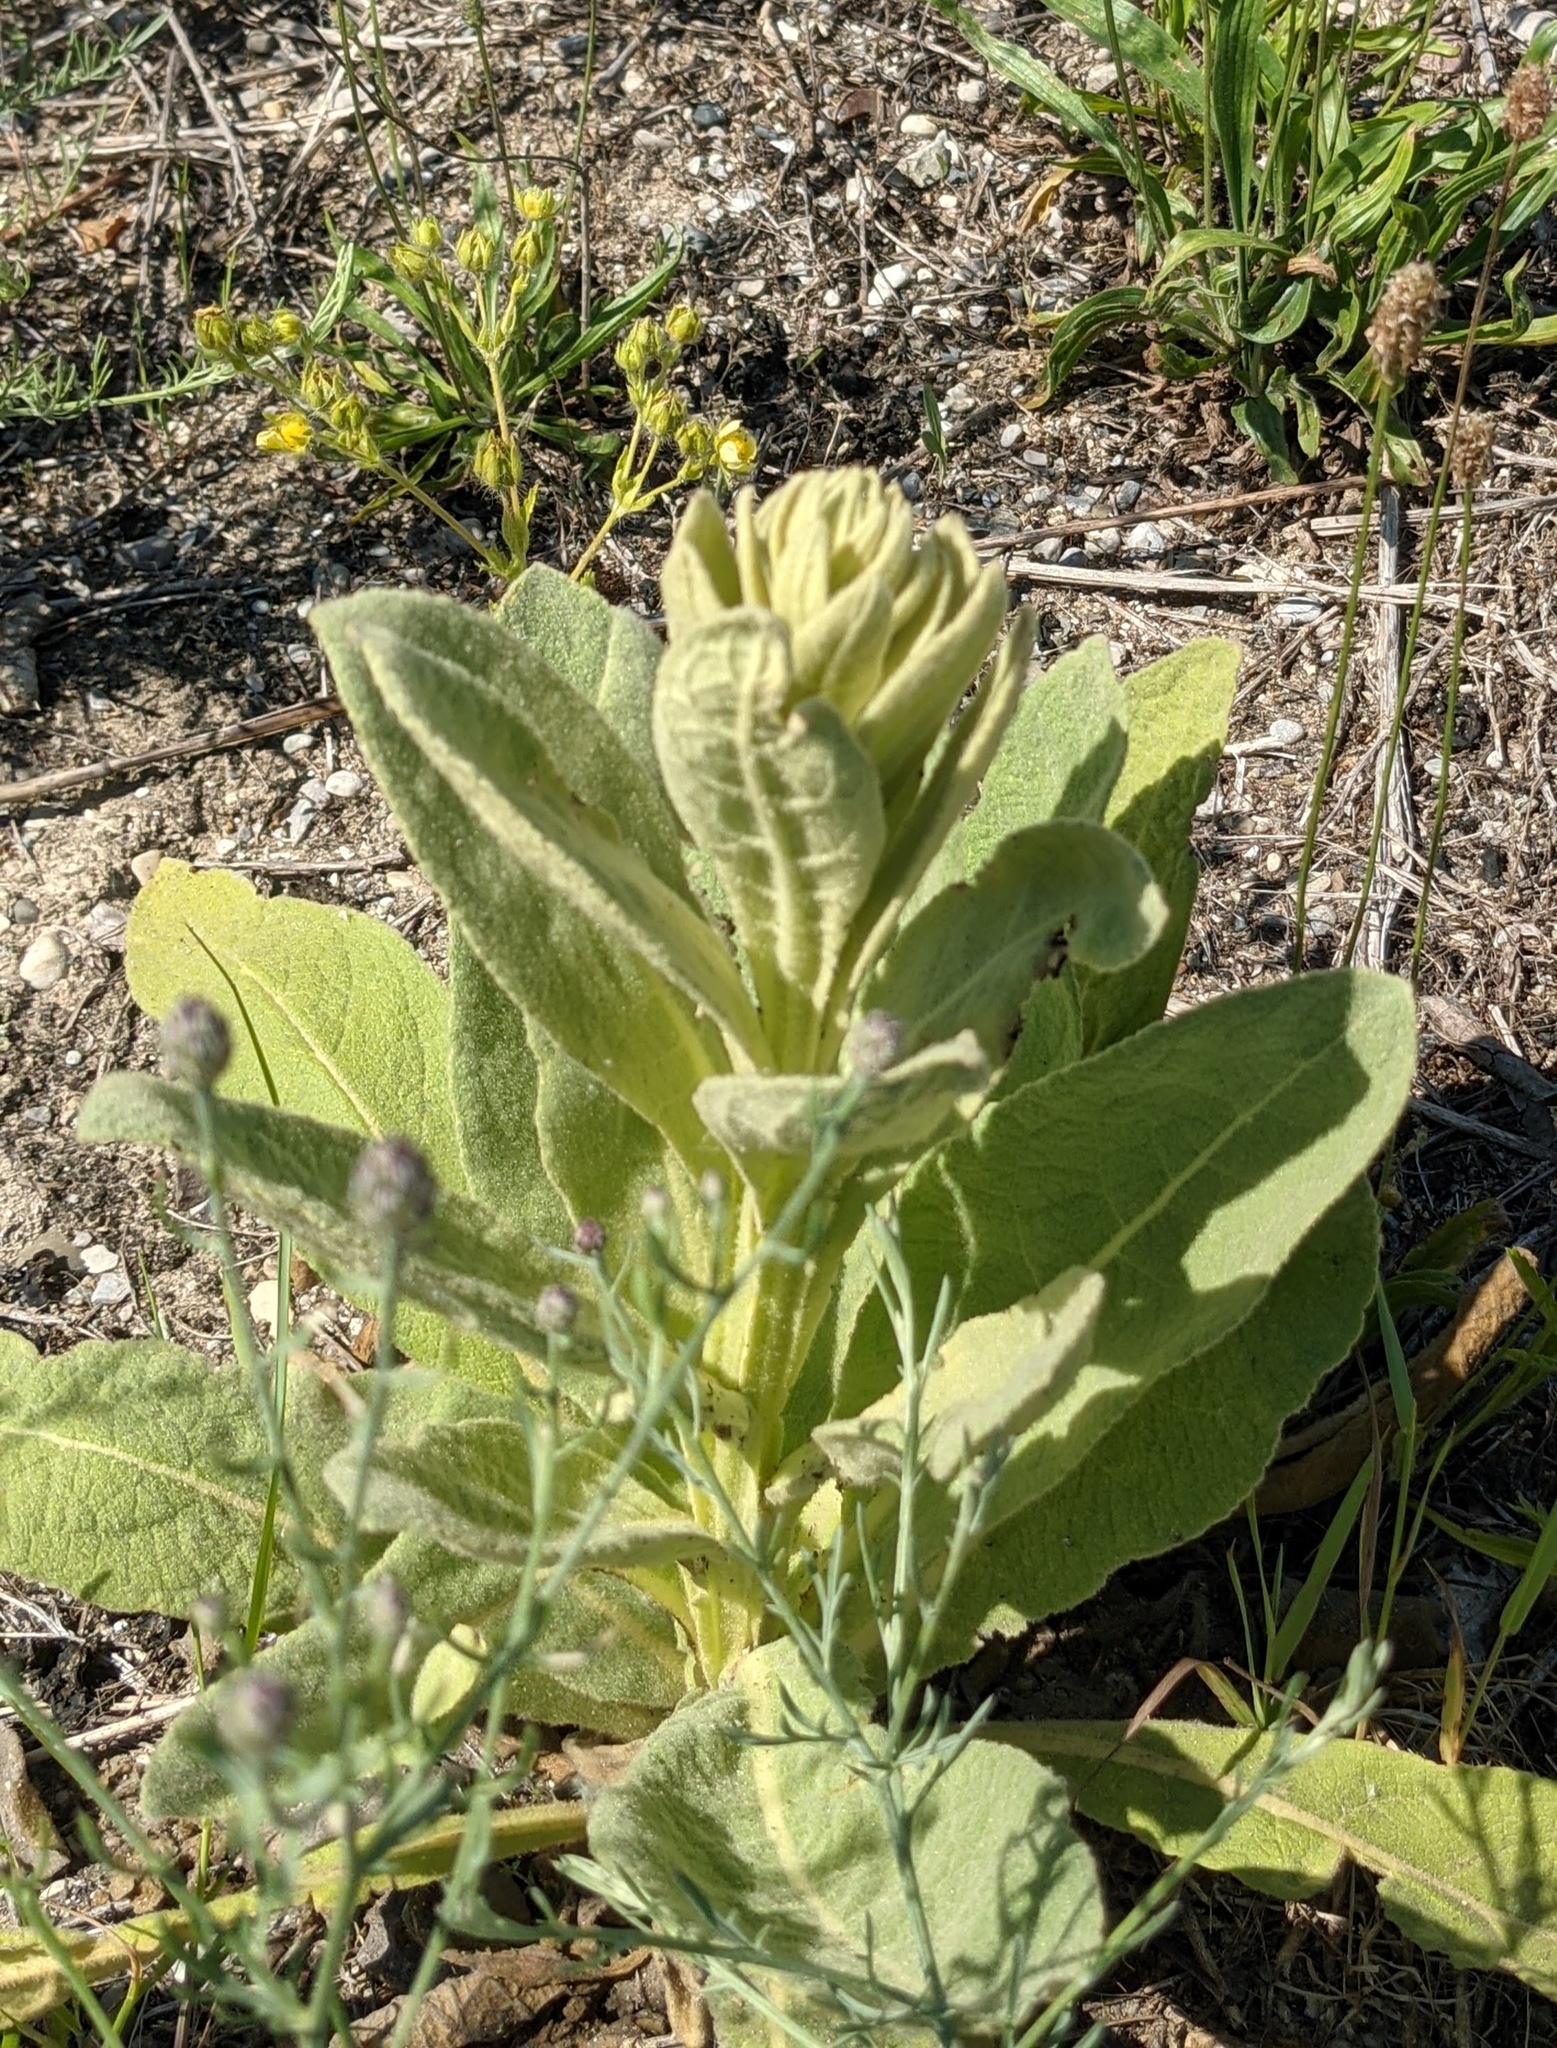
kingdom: Plantae
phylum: Tracheophyta
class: Magnoliopsida
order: Lamiales
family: Scrophulariaceae
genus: Verbascum
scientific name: Verbascum thapsus
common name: Common mullein
